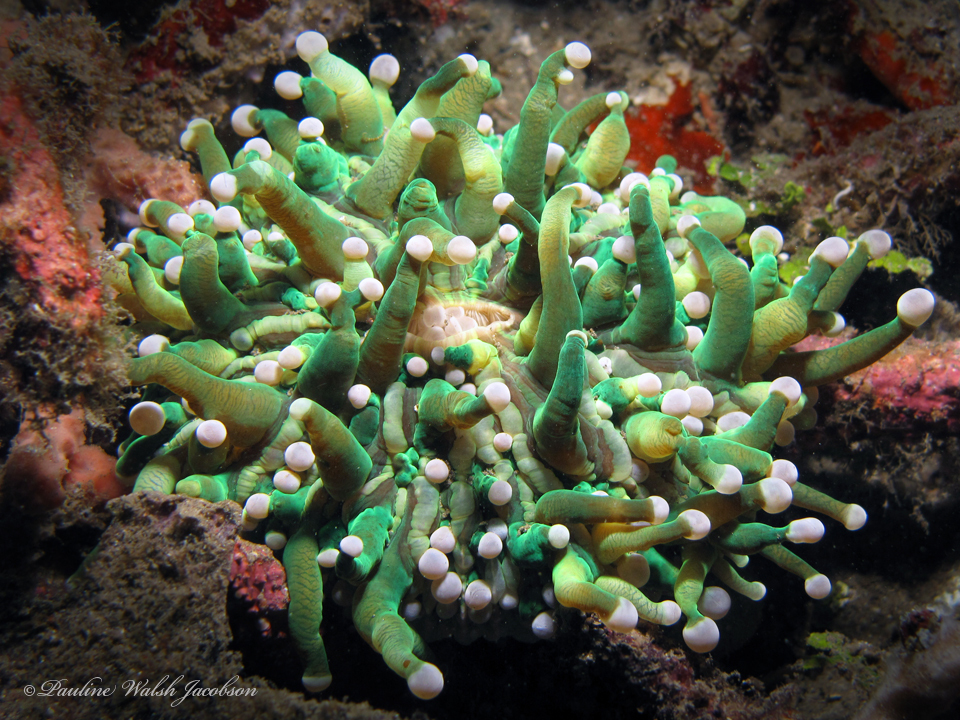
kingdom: Animalia
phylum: Cnidaria
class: Anthozoa
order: Scleractinia
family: Fungiidae
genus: Heliofungia
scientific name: Heliofungia actiniformis
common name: Plate coral
